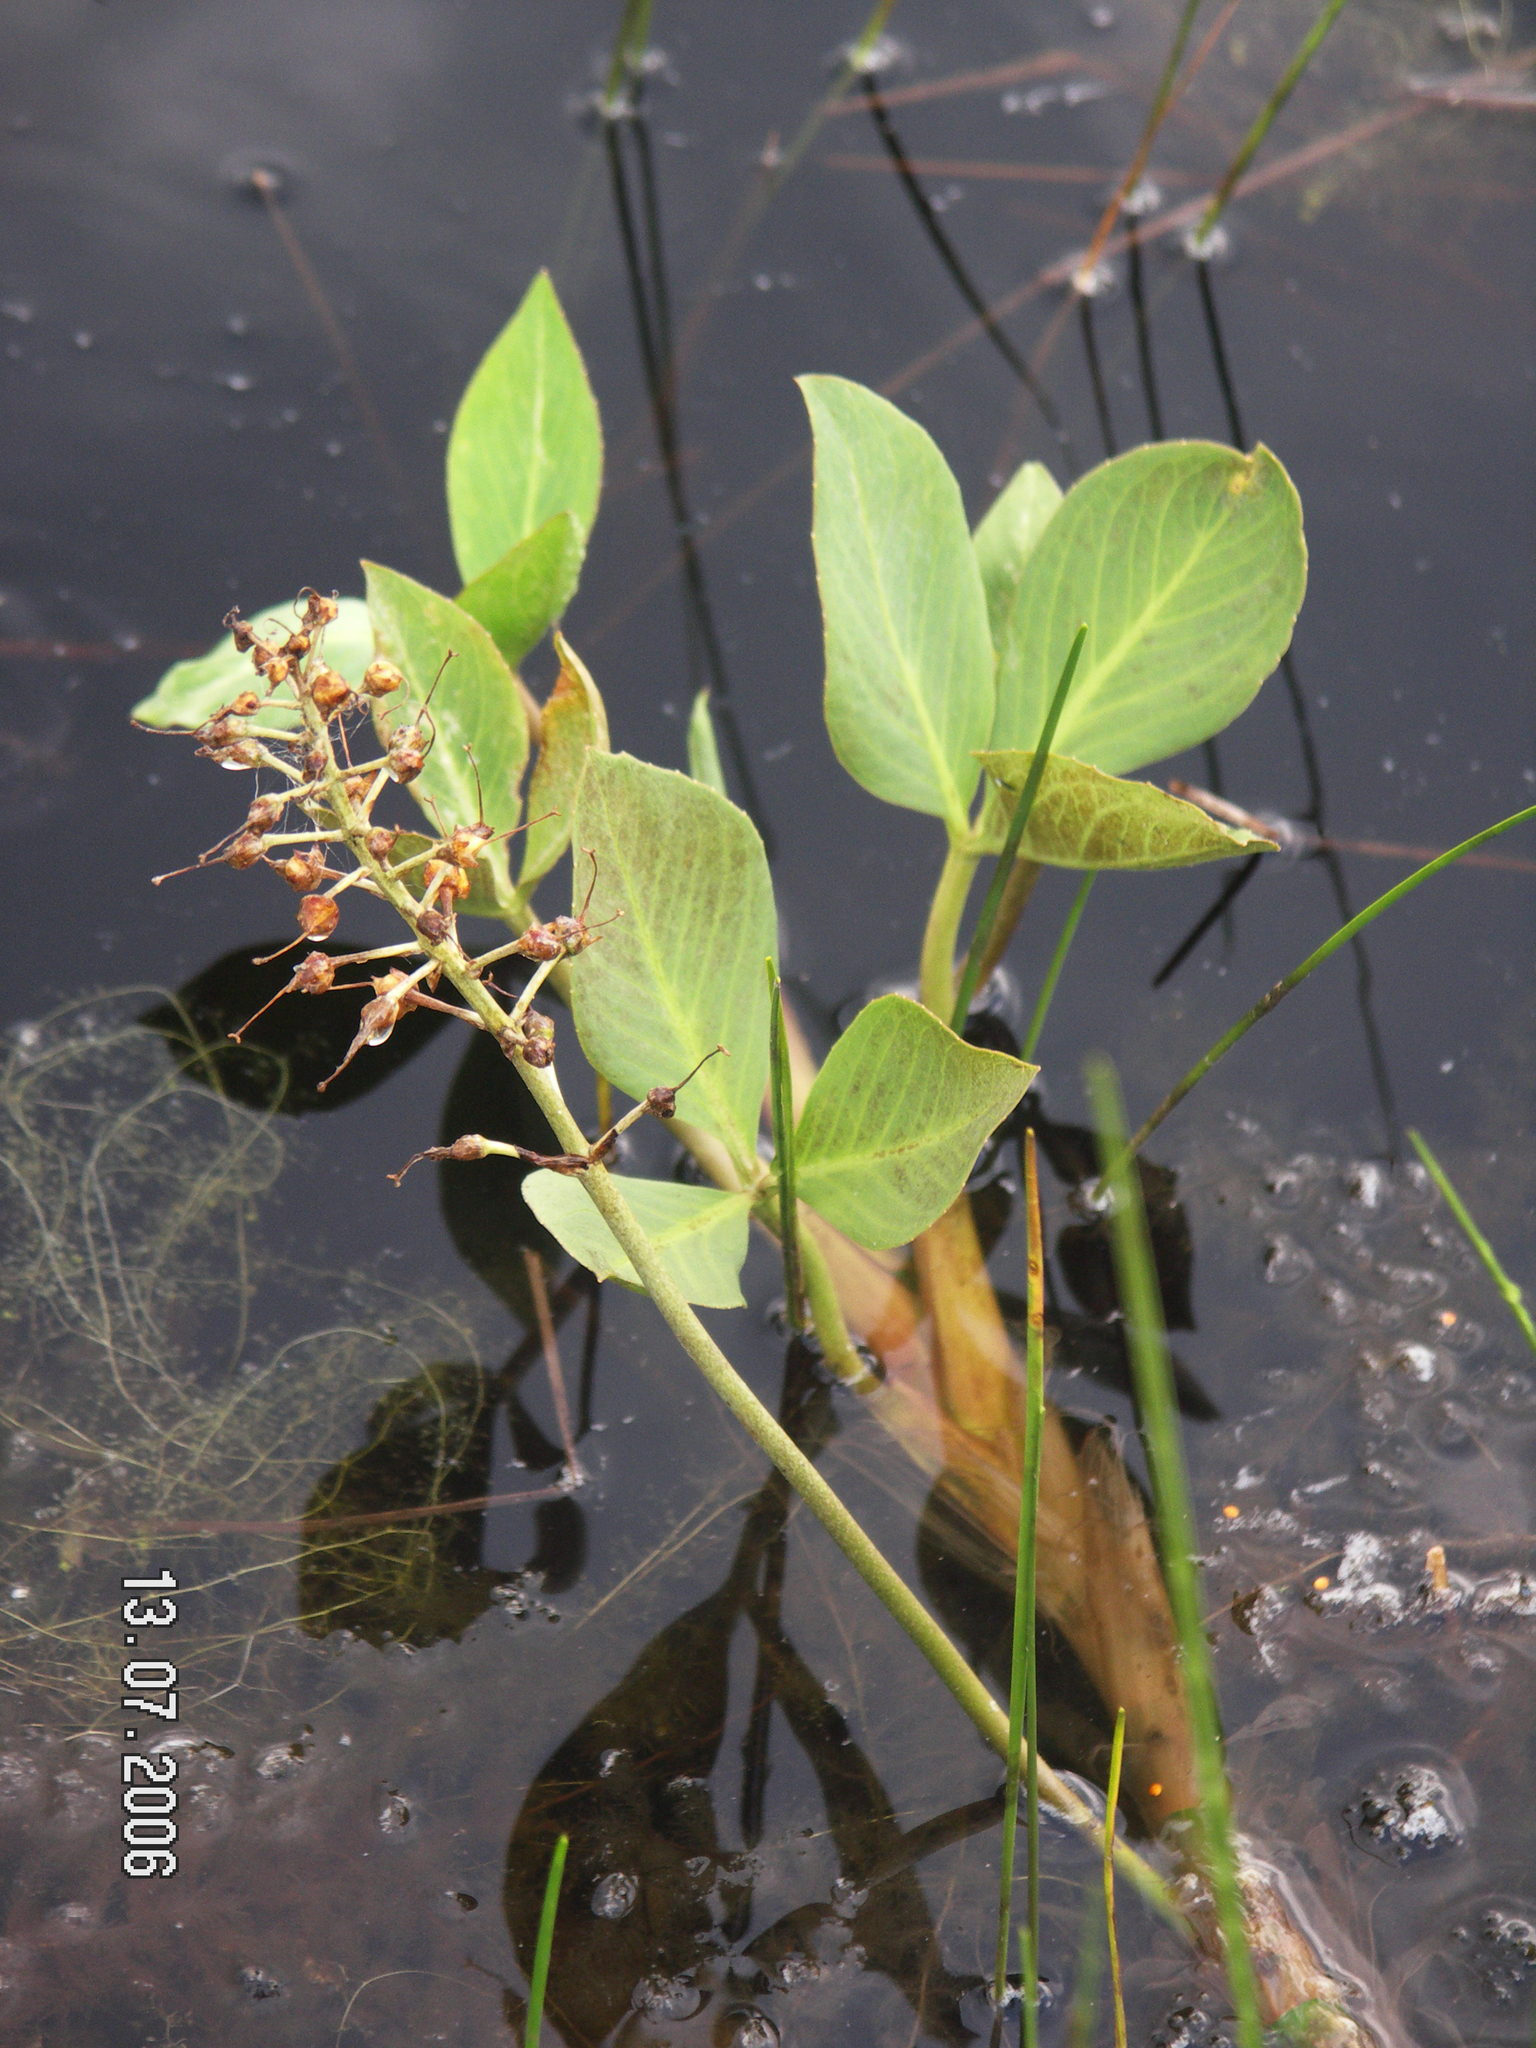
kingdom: Plantae
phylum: Tracheophyta
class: Magnoliopsida
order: Asterales
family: Menyanthaceae
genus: Menyanthes
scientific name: Menyanthes trifoliata
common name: Bogbean
